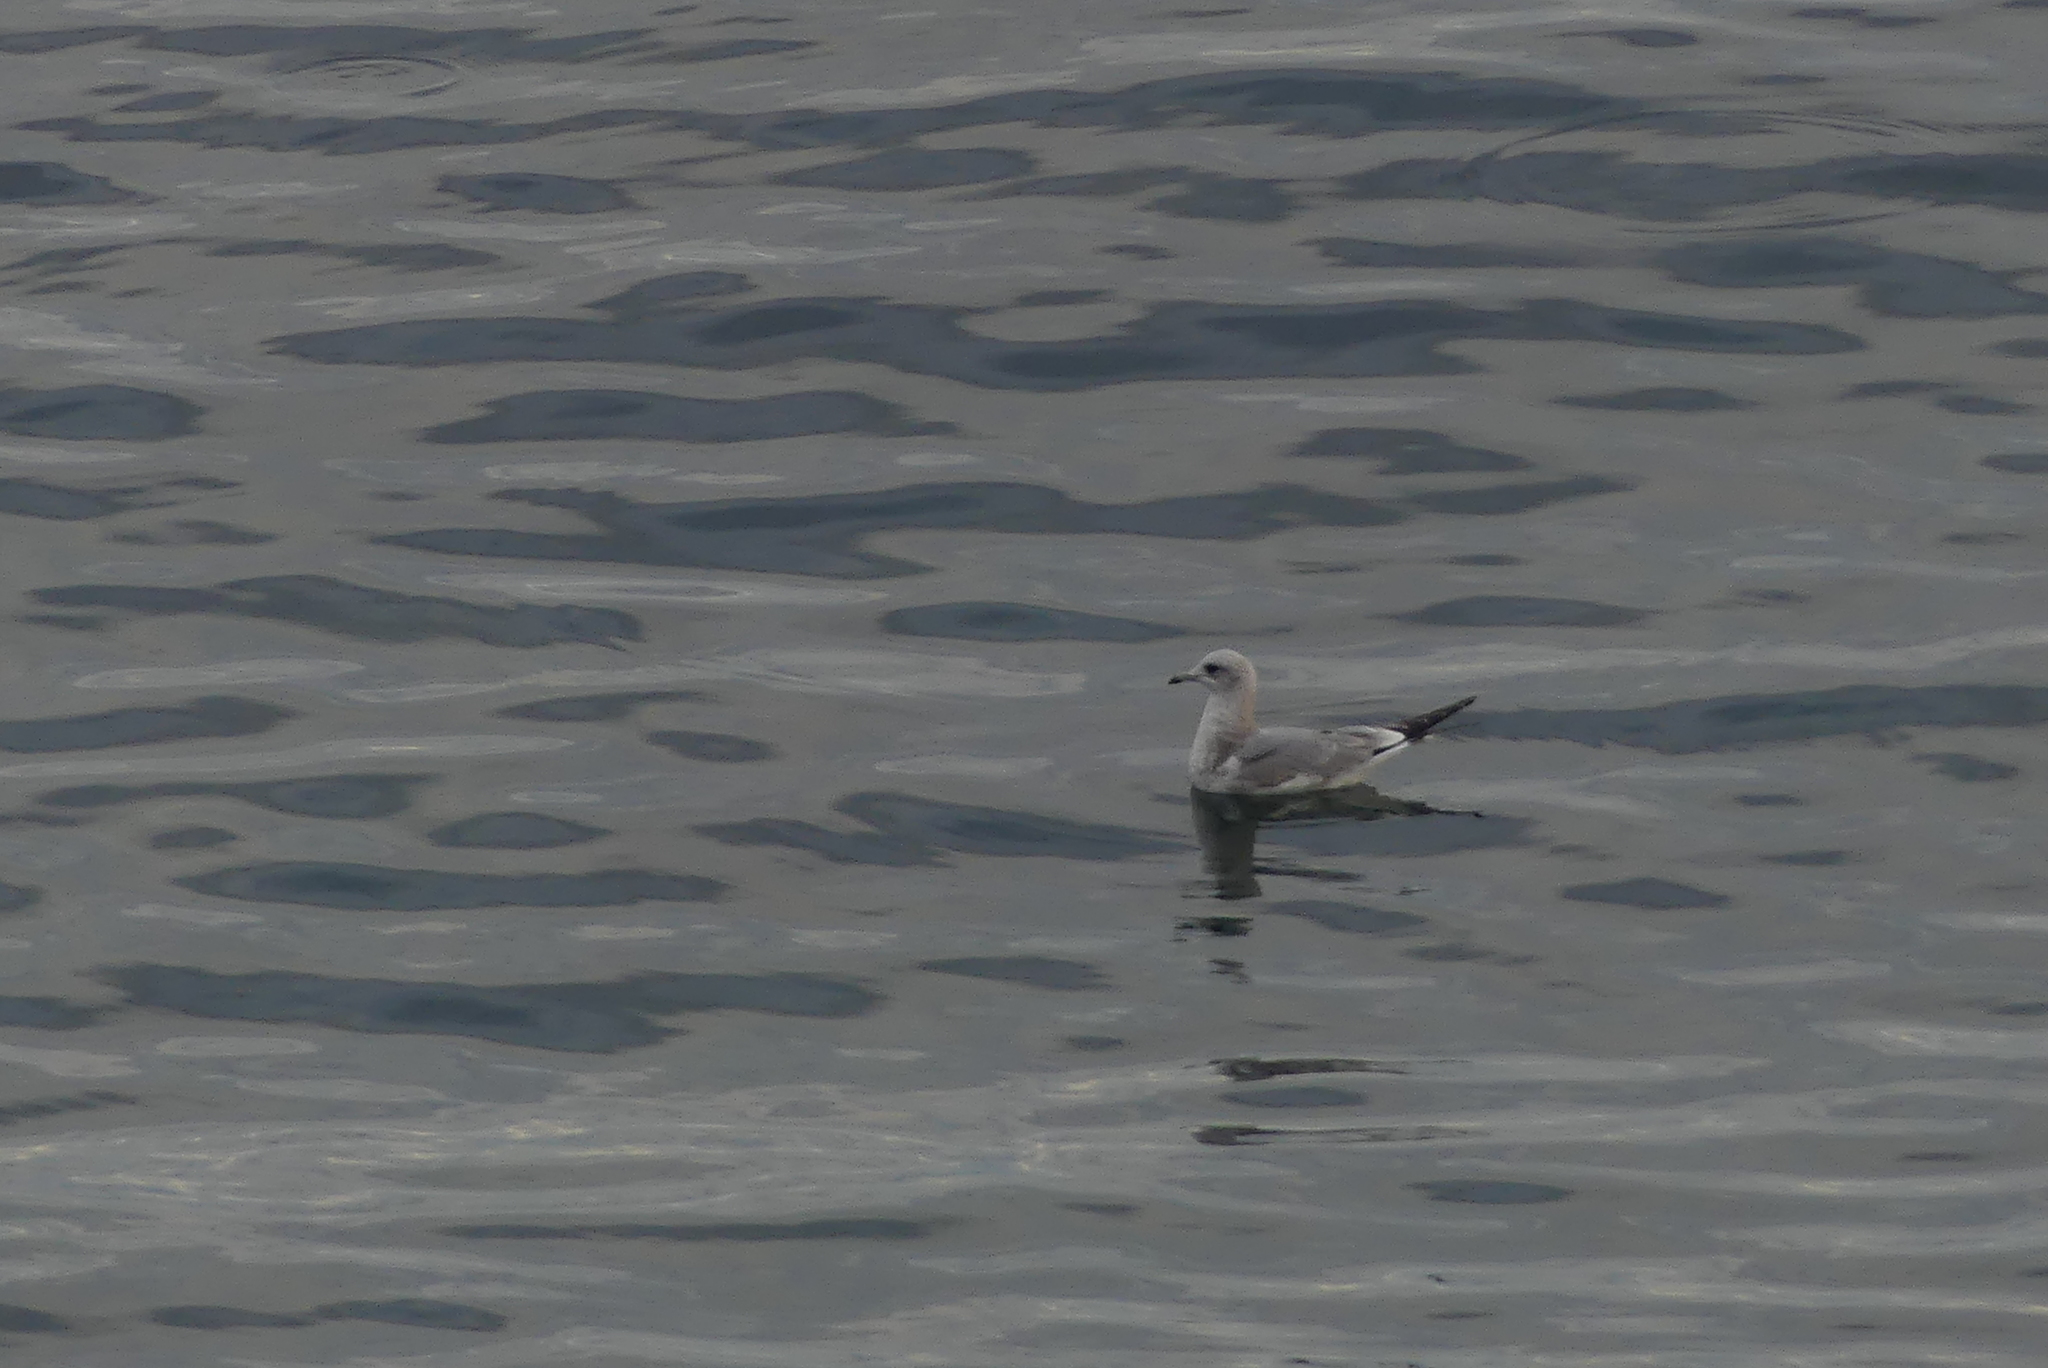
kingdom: Animalia
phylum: Chordata
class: Aves
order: Charadriiformes
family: Laridae
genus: Larus
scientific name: Larus brachyrhynchus
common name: Short-billed gull
